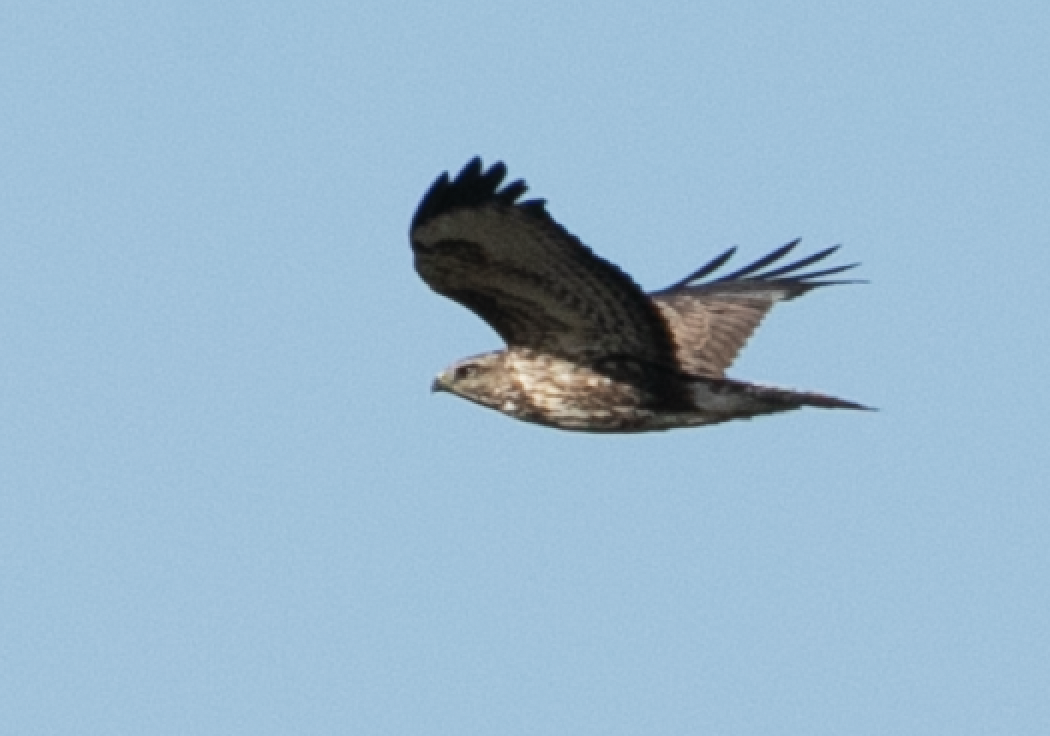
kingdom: Animalia
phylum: Chordata
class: Aves
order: Accipitriformes
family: Accipitridae
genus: Buteo
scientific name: Buteo buteo
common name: Common buzzard
